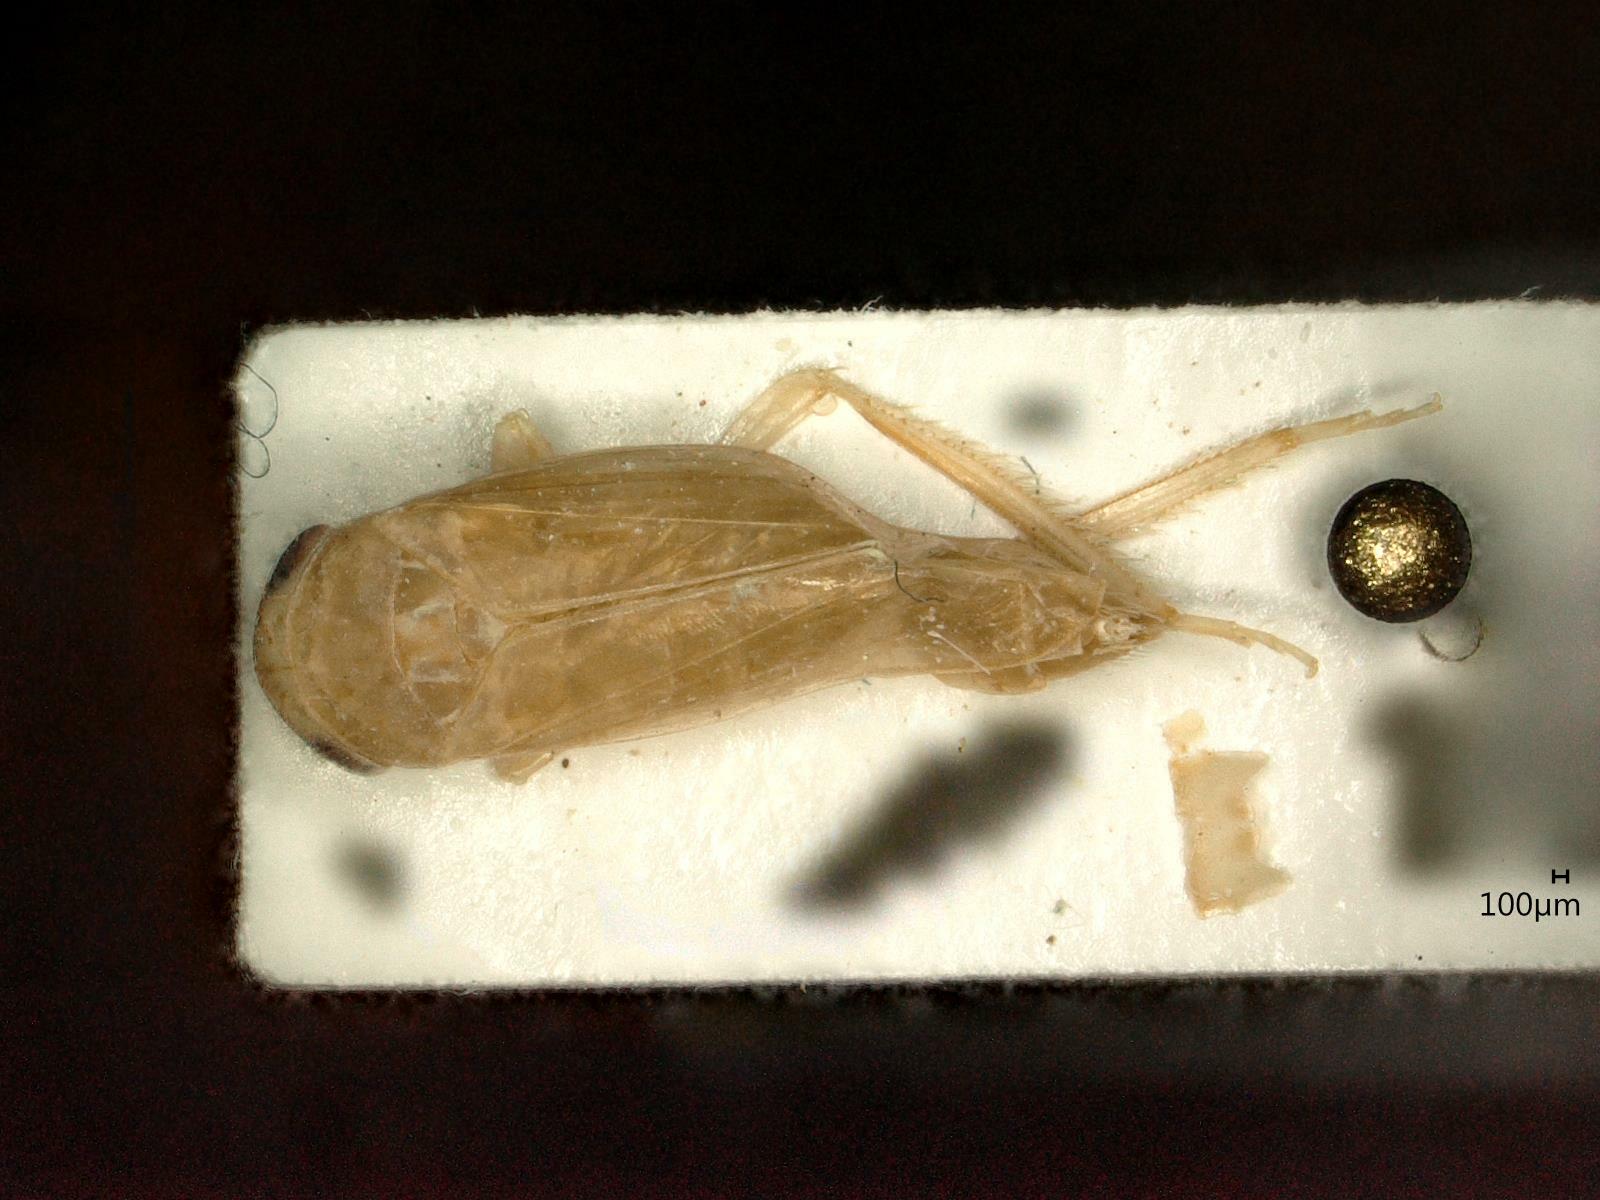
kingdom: Animalia
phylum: Arthropoda
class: Insecta
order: Hemiptera
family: Cicadellidae
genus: Allygus
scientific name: Allygus modestus
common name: Leafhopper
